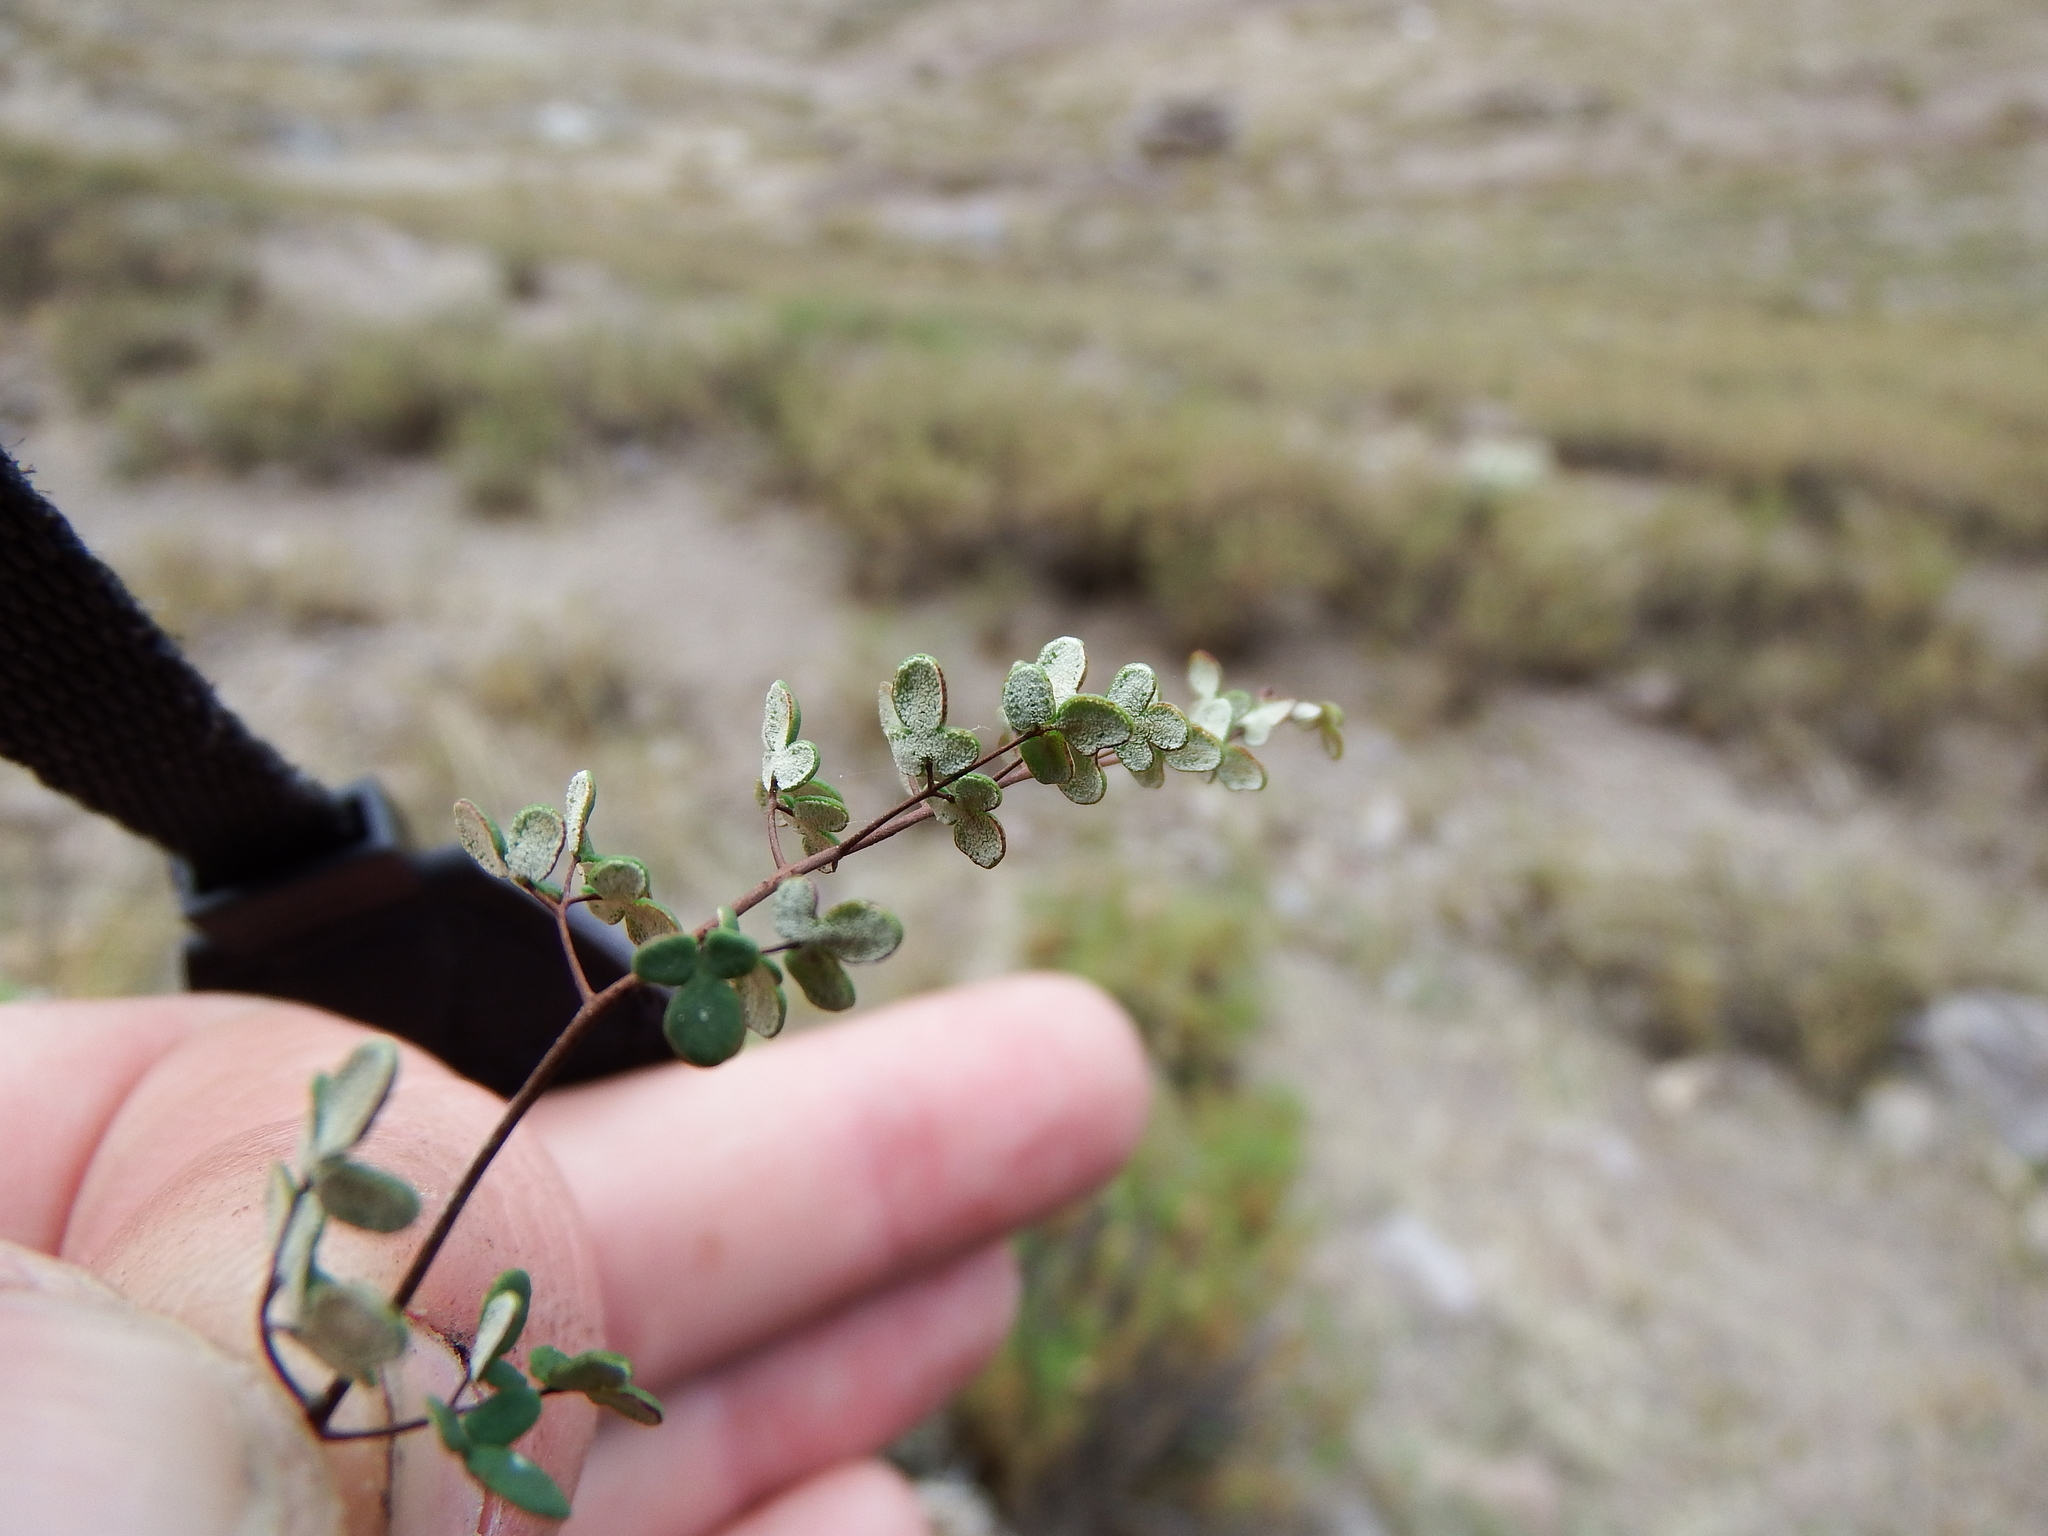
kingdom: Plantae
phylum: Tracheophyta
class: Polypodiopsida
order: Polypodiales
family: Pteridaceae
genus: Argyrochosma
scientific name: Argyrochosma nivea
